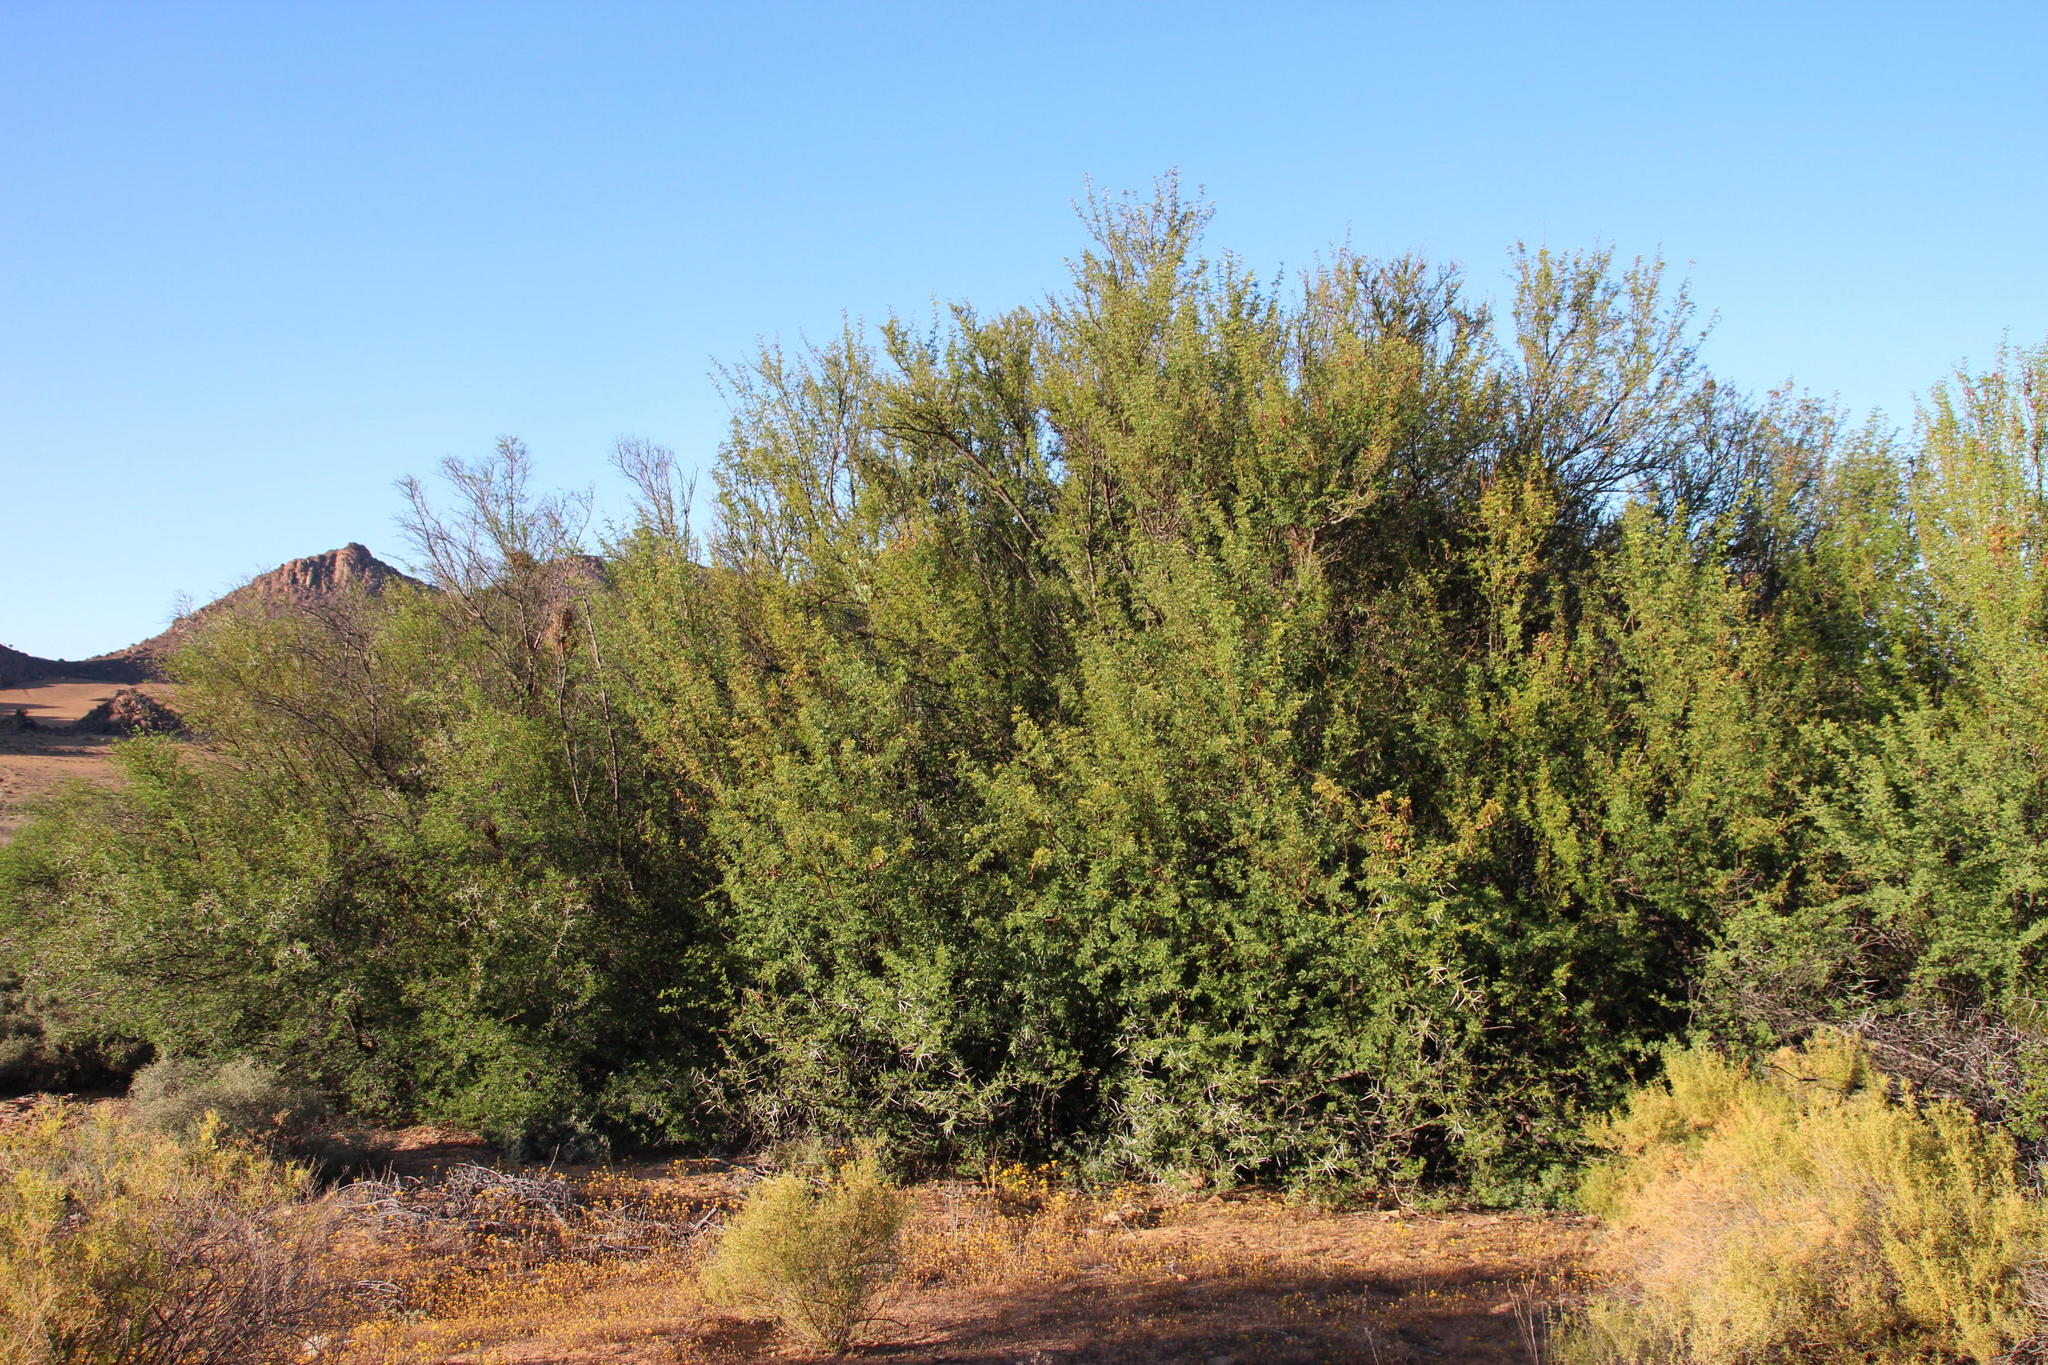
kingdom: Plantae
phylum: Tracheophyta
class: Magnoliopsida
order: Fabales
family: Fabaceae
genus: Vachellia
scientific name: Vachellia karroo
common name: Sweet thorn
